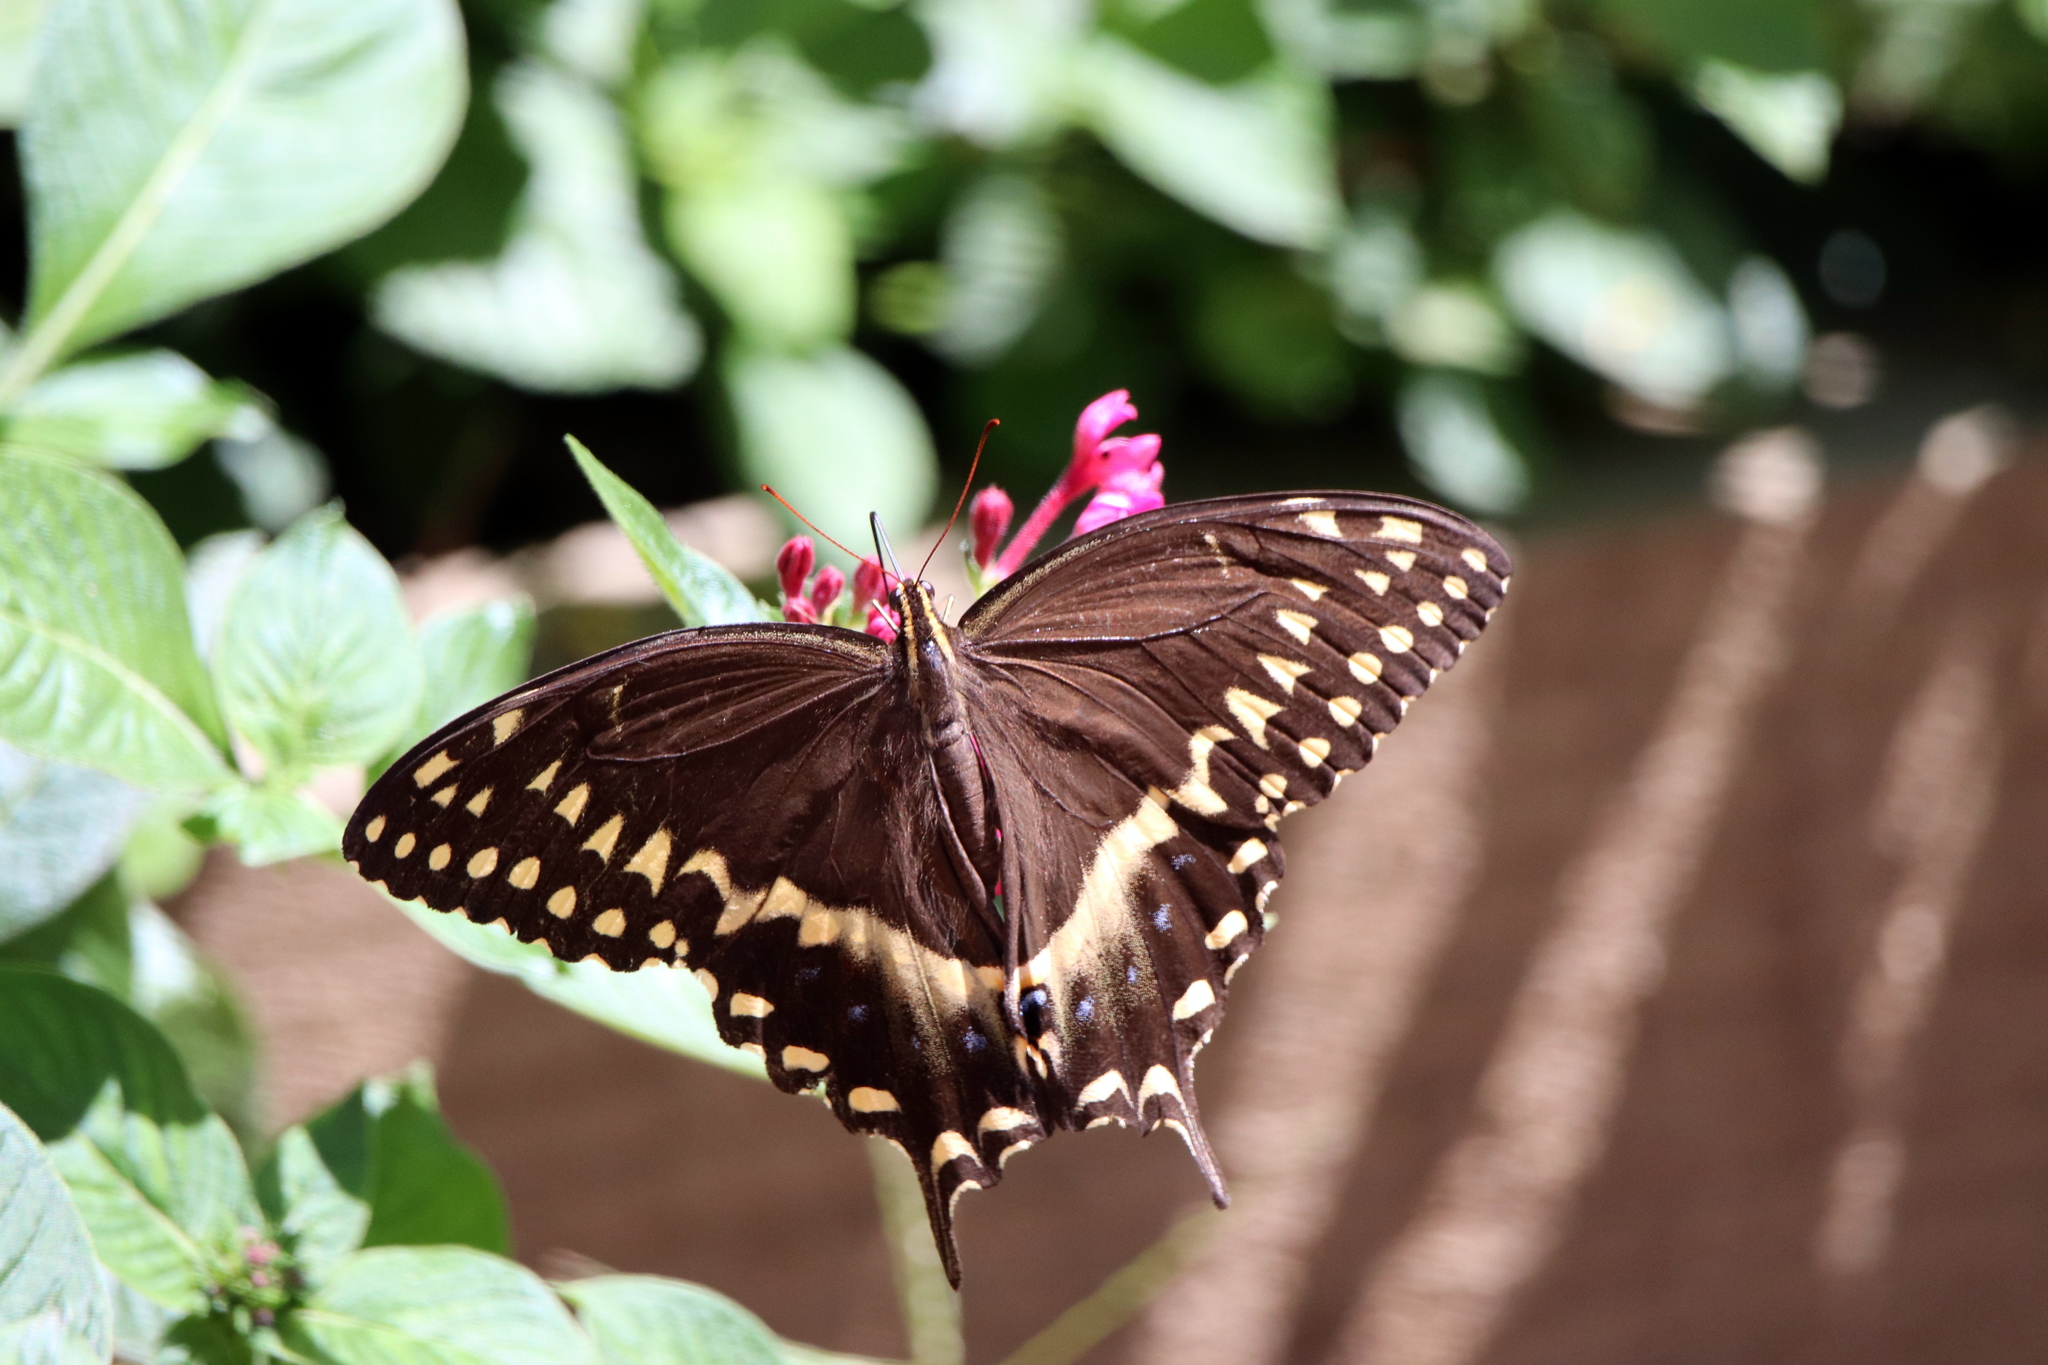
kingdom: Animalia
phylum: Arthropoda
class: Insecta
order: Lepidoptera
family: Papilionidae
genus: Papilio
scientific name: Papilio palamedes
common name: Palamedes swallowtail
